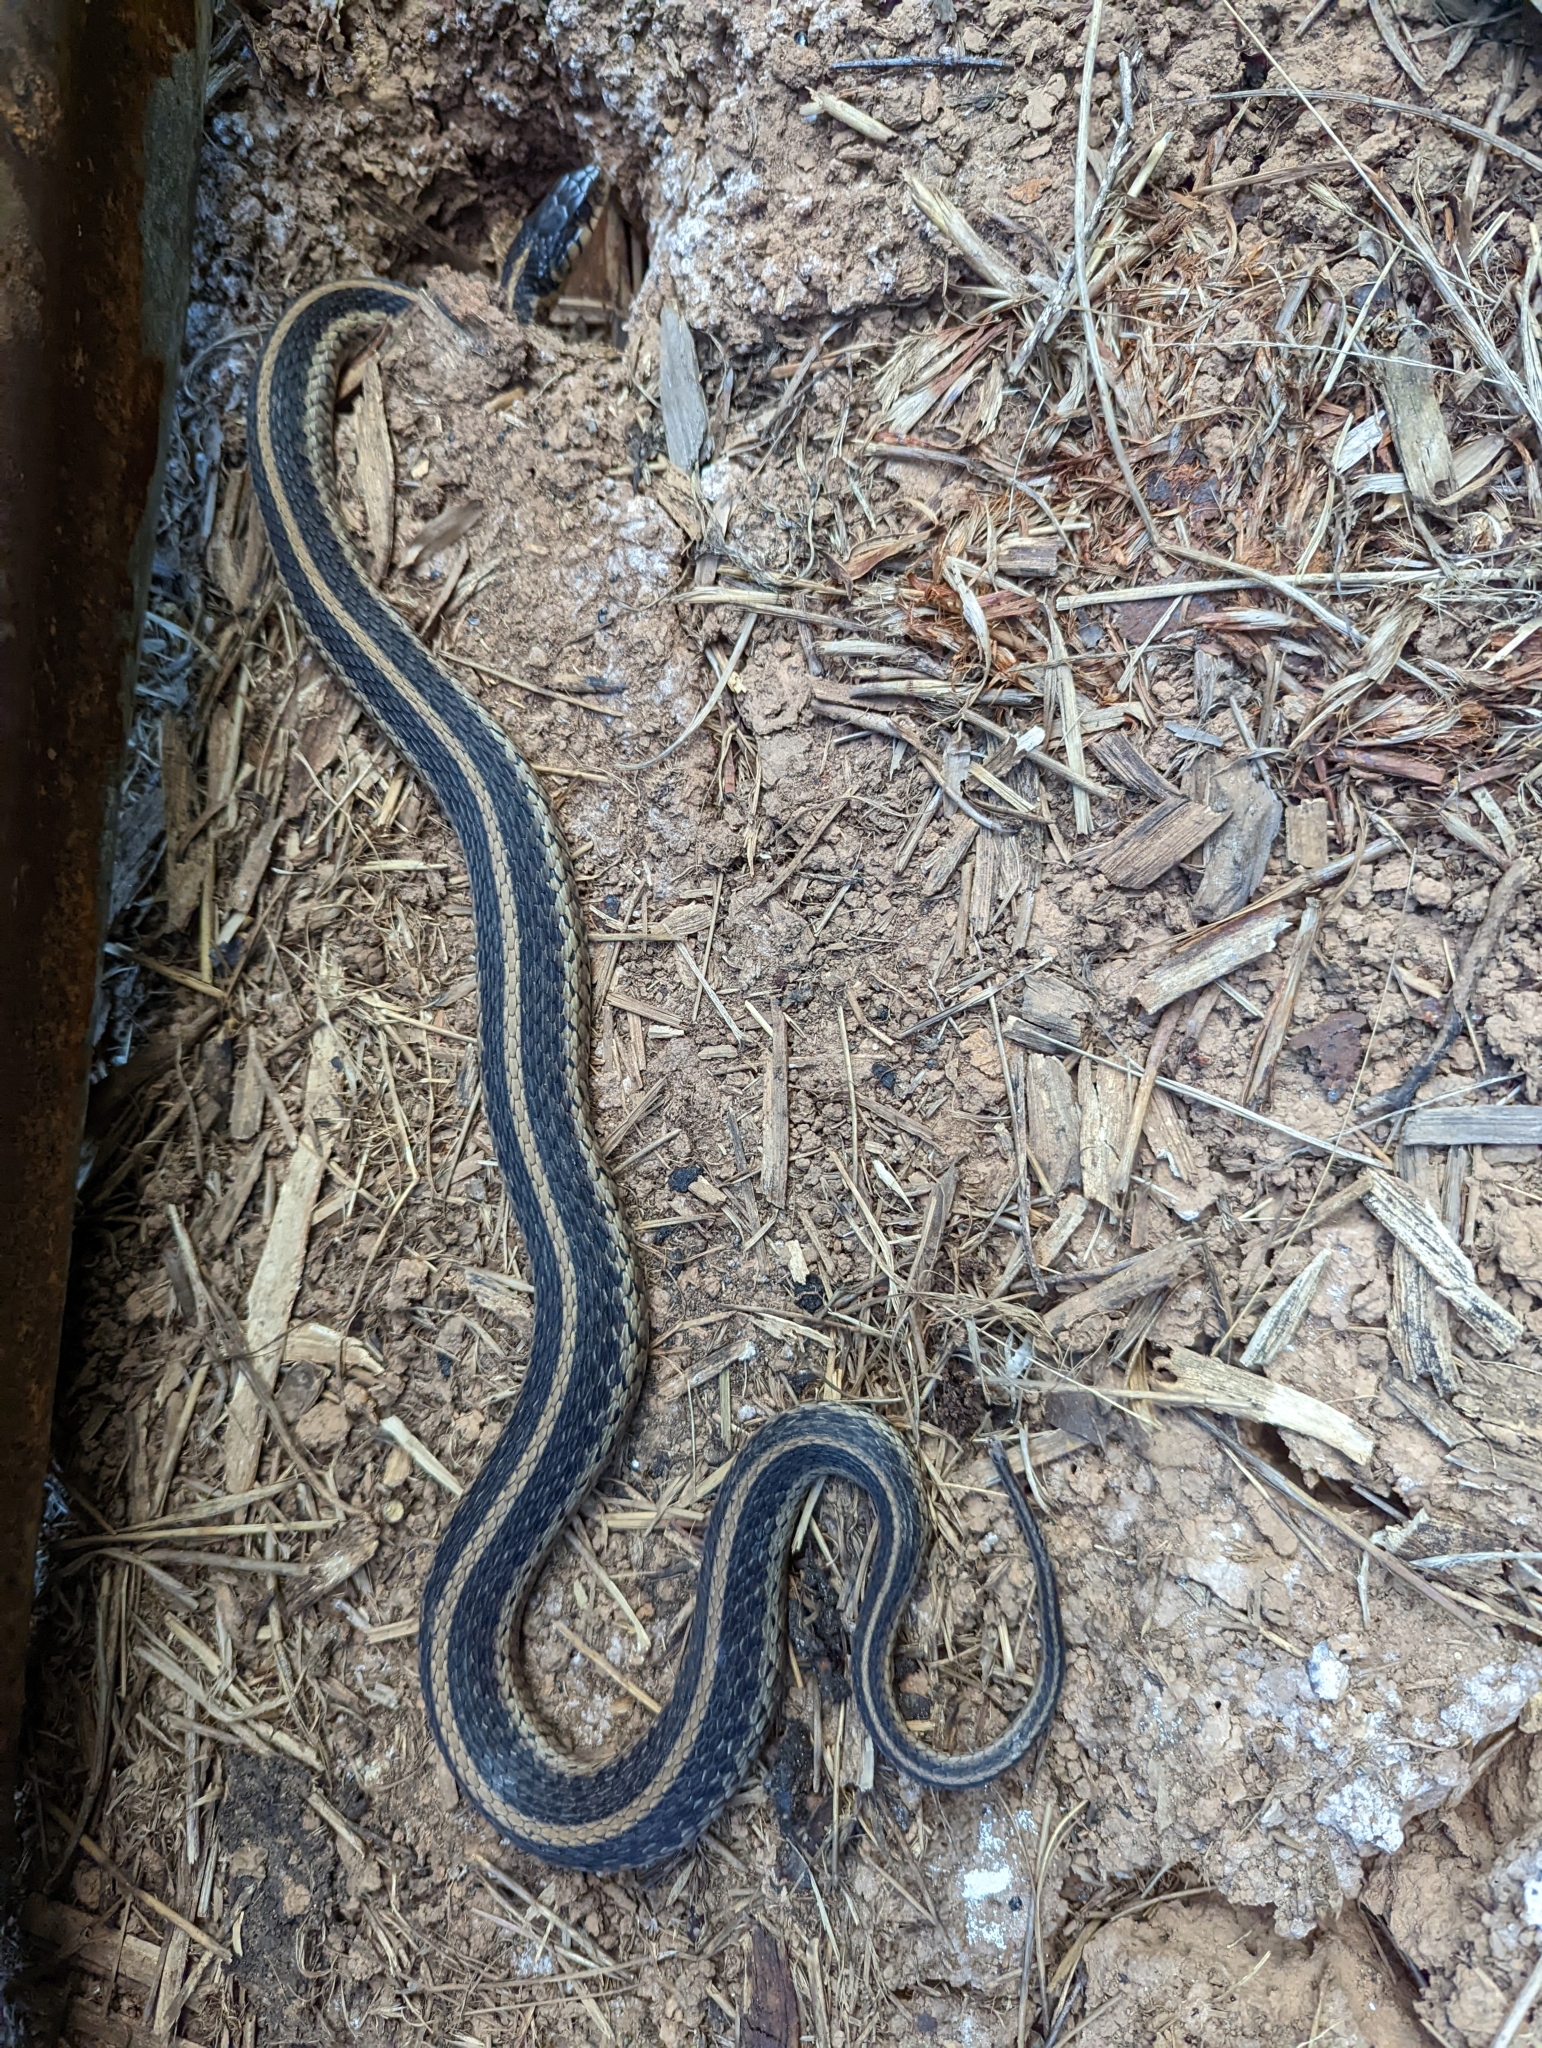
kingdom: Animalia
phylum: Chordata
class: Squamata
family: Colubridae
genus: Thamnophis
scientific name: Thamnophis sirtalis
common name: Common garter snake
